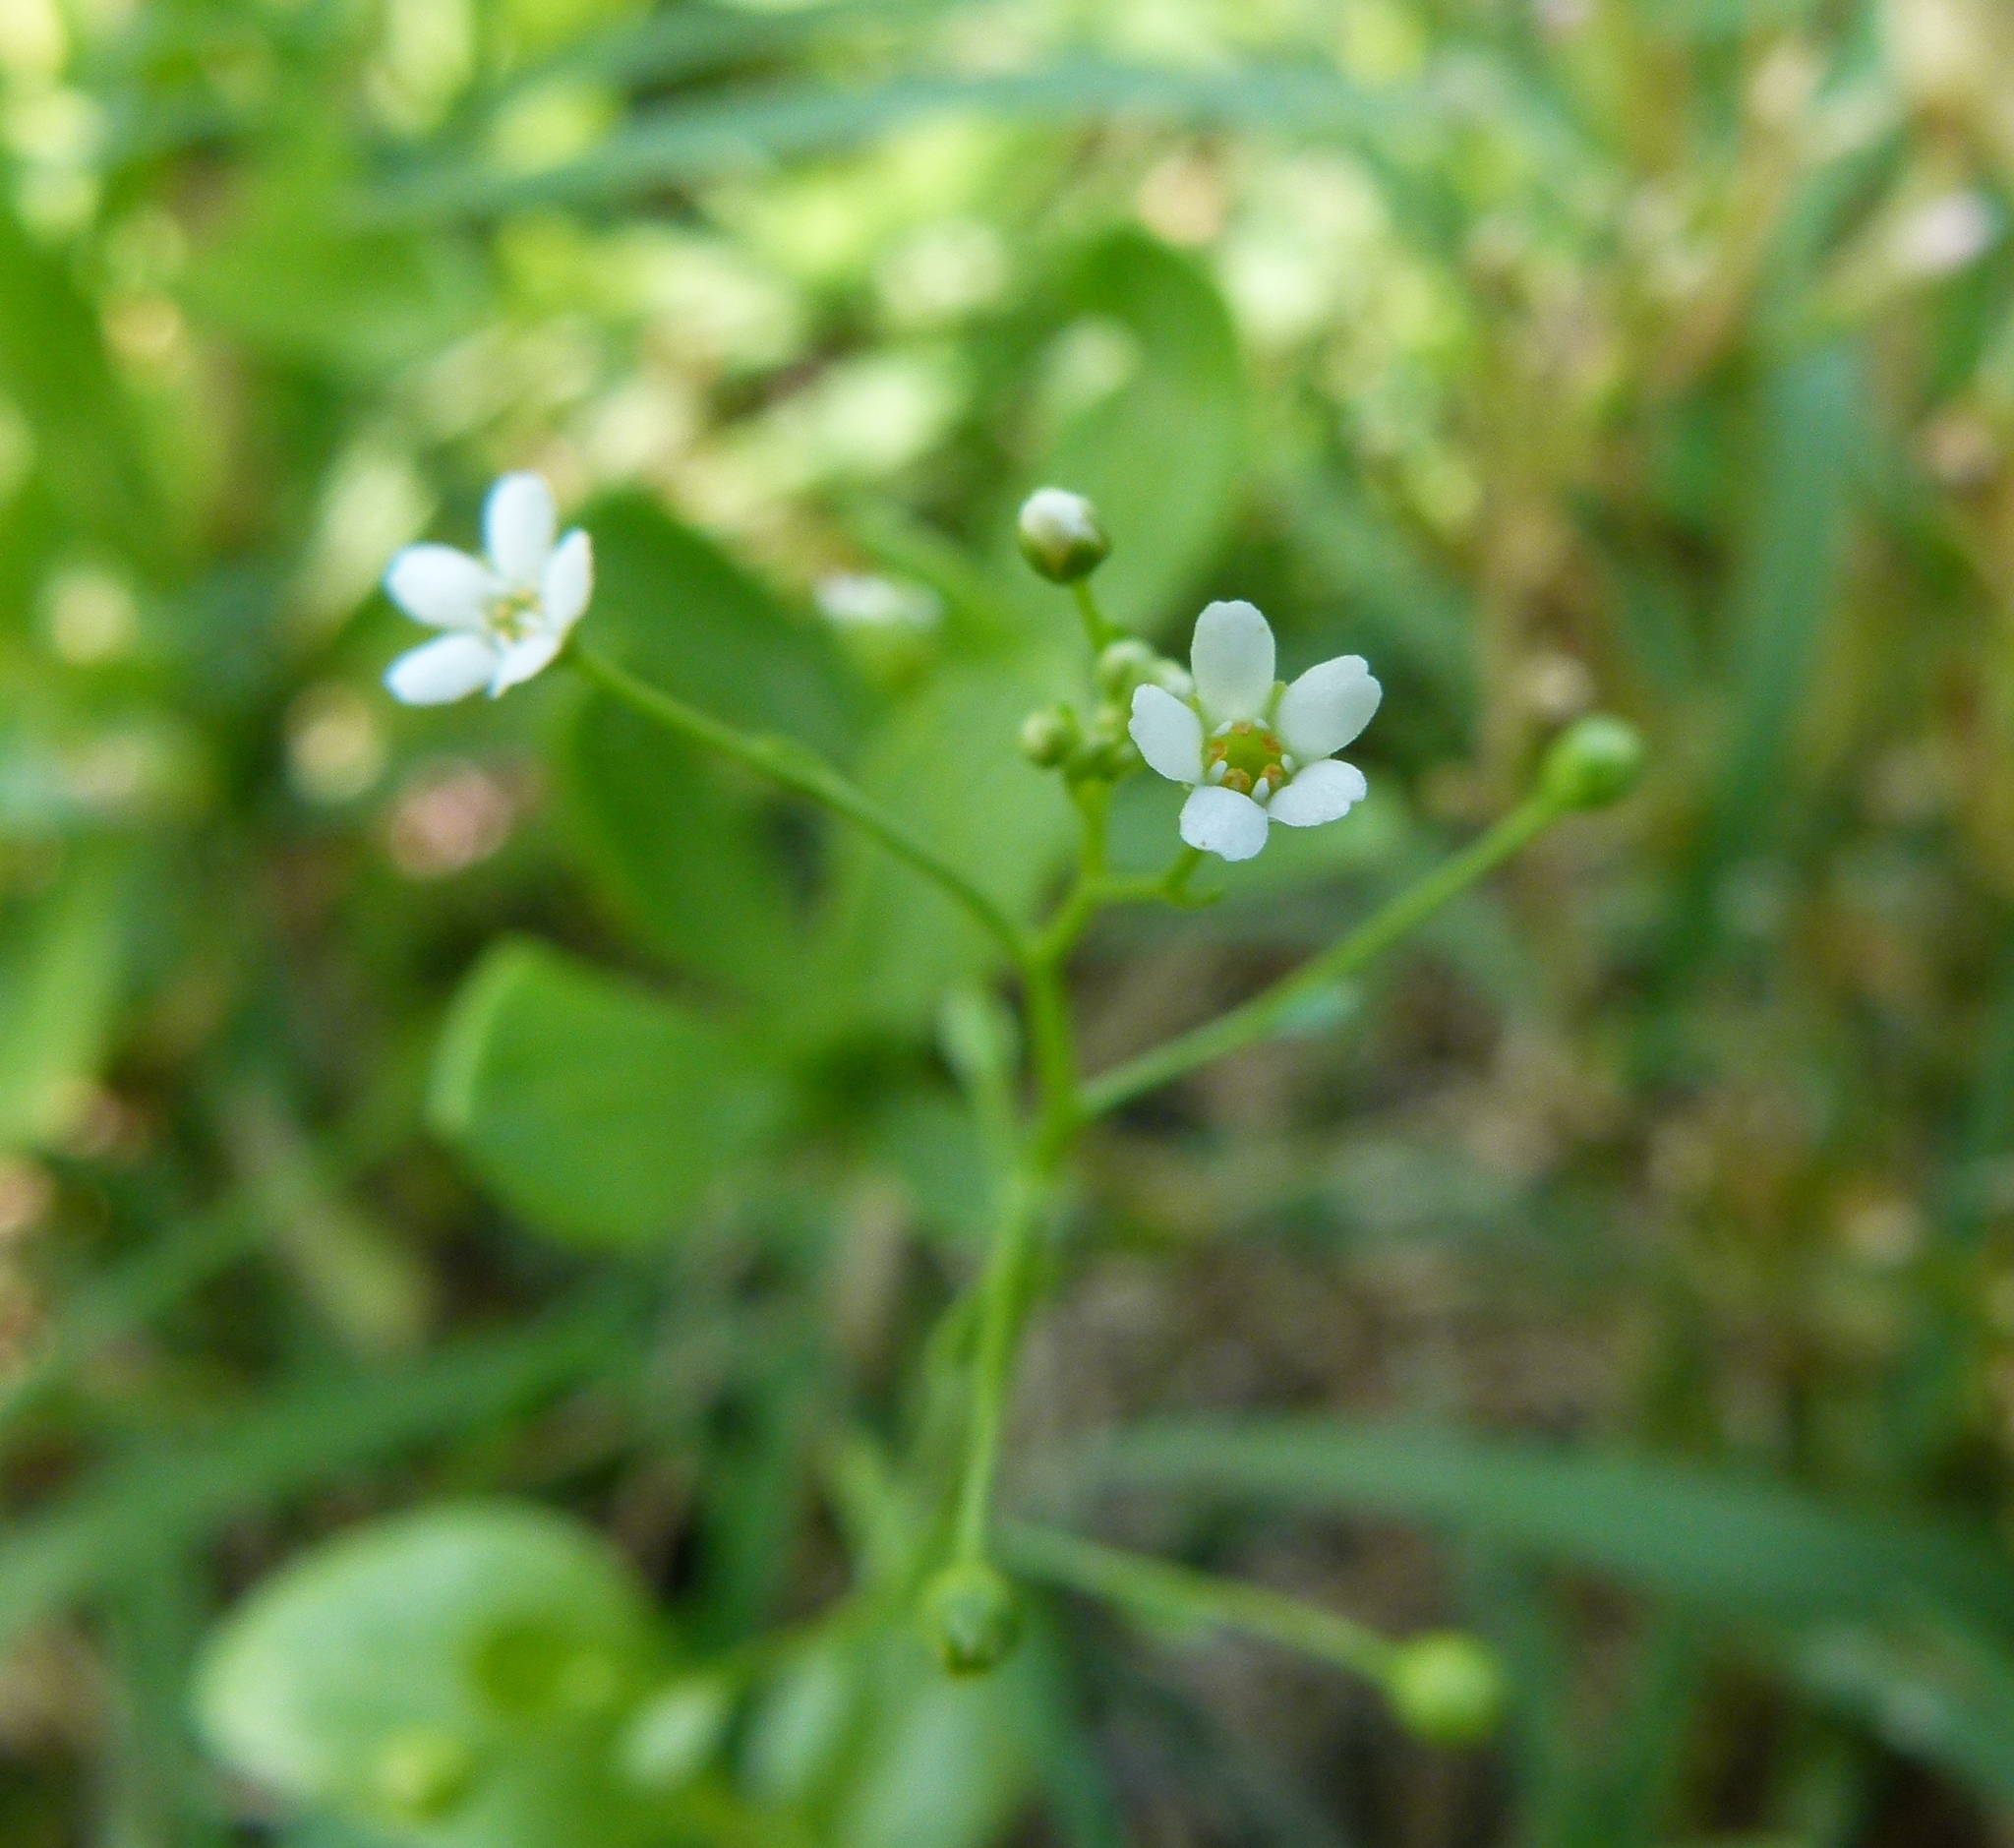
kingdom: Plantae
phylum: Tracheophyta
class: Magnoliopsida
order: Ericales
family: Primulaceae
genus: Samolus
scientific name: Samolus parviflorus
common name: False water pimpernel
